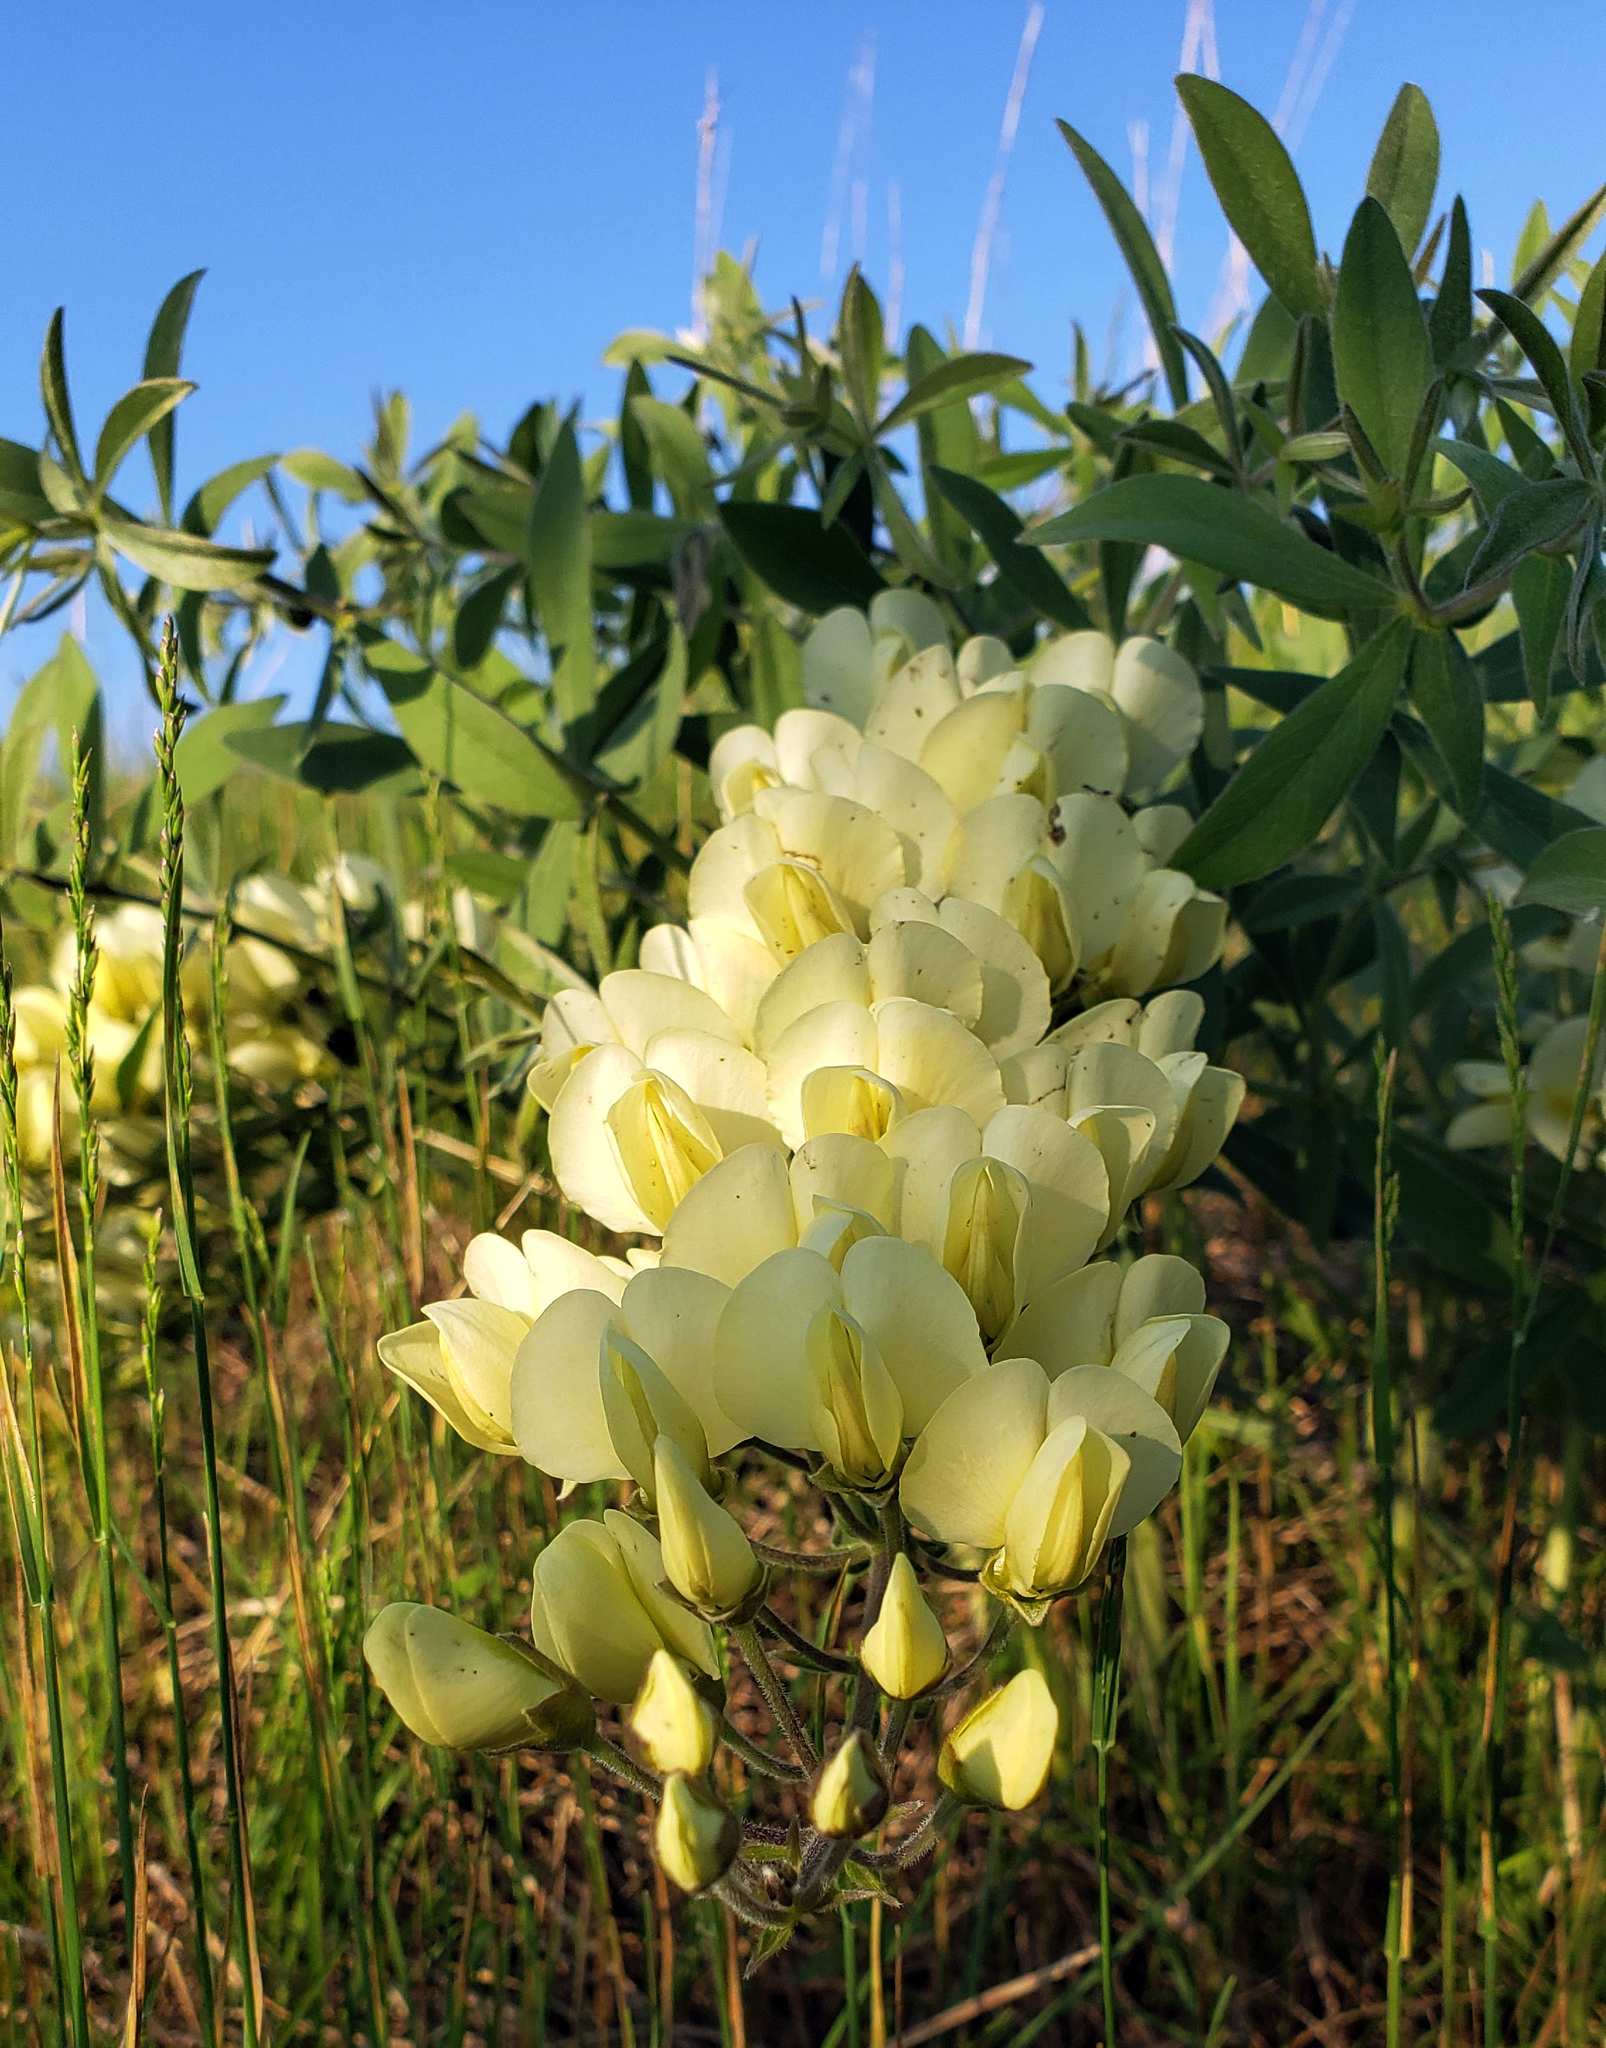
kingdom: Plantae
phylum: Tracheophyta
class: Magnoliopsida
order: Fabales
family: Fabaceae
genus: Baptisia
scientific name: Baptisia bracteata
